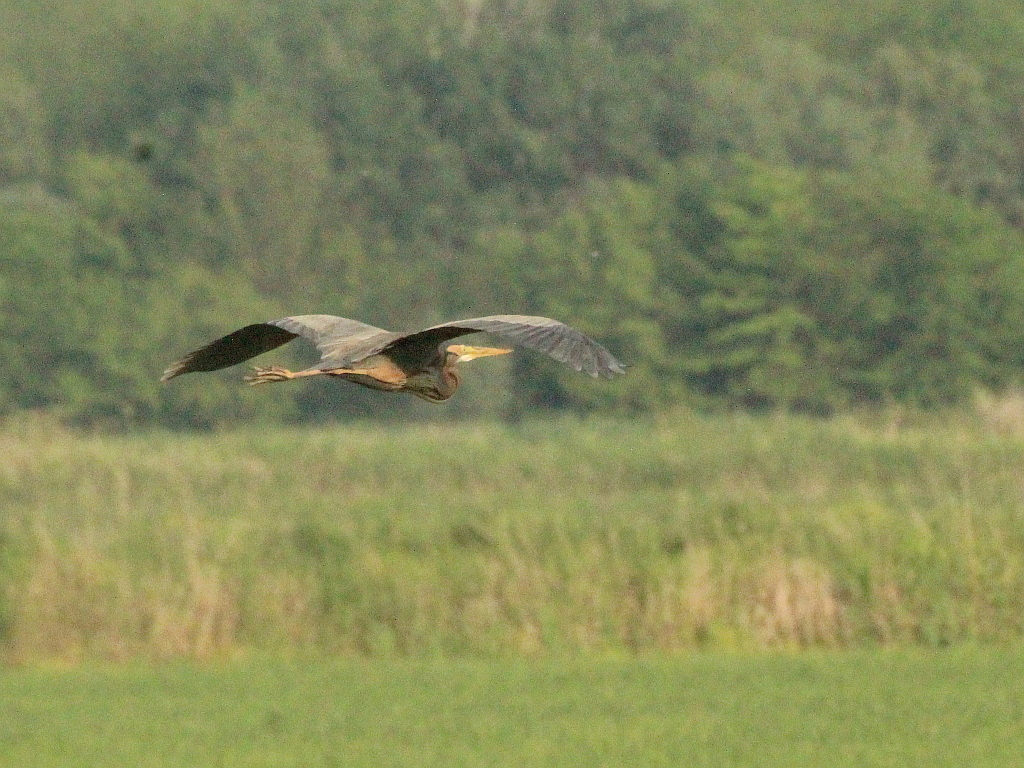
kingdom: Animalia
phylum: Chordata
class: Aves
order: Pelecaniformes
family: Ardeidae
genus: Ardea
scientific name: Ardea purpurea
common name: Purple heron
